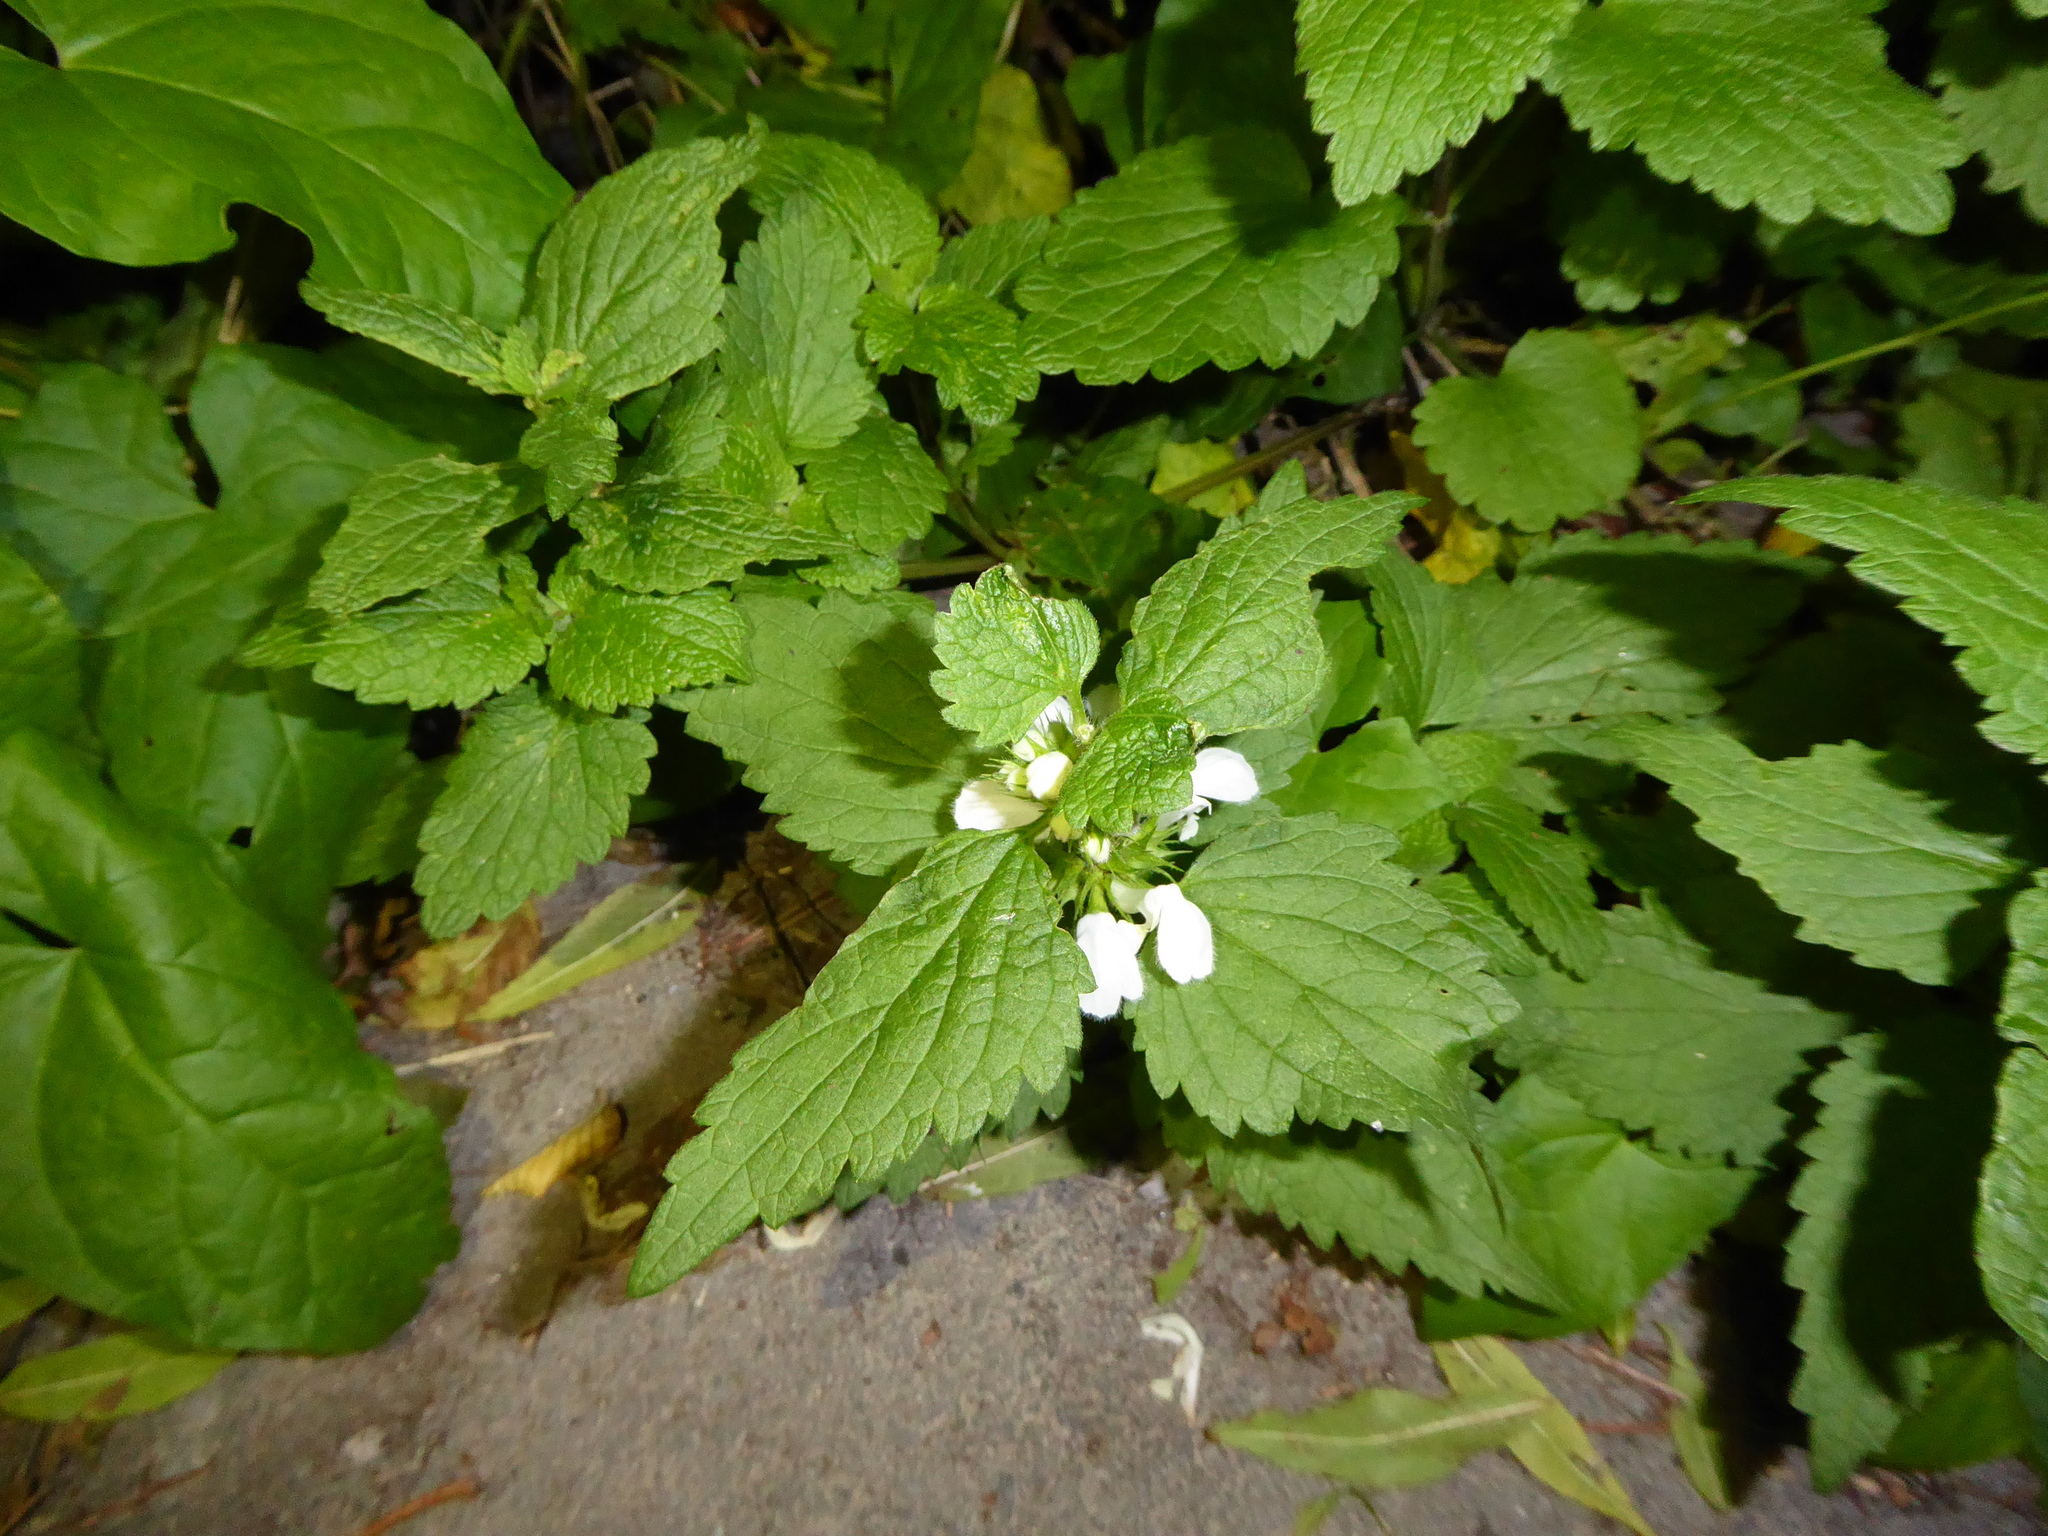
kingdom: Plantae
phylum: Tracheophyta
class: Magnoliopsida
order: Lamiales
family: Lamiaceae
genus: Lamium
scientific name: Lamium album
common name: White dead-nettle
